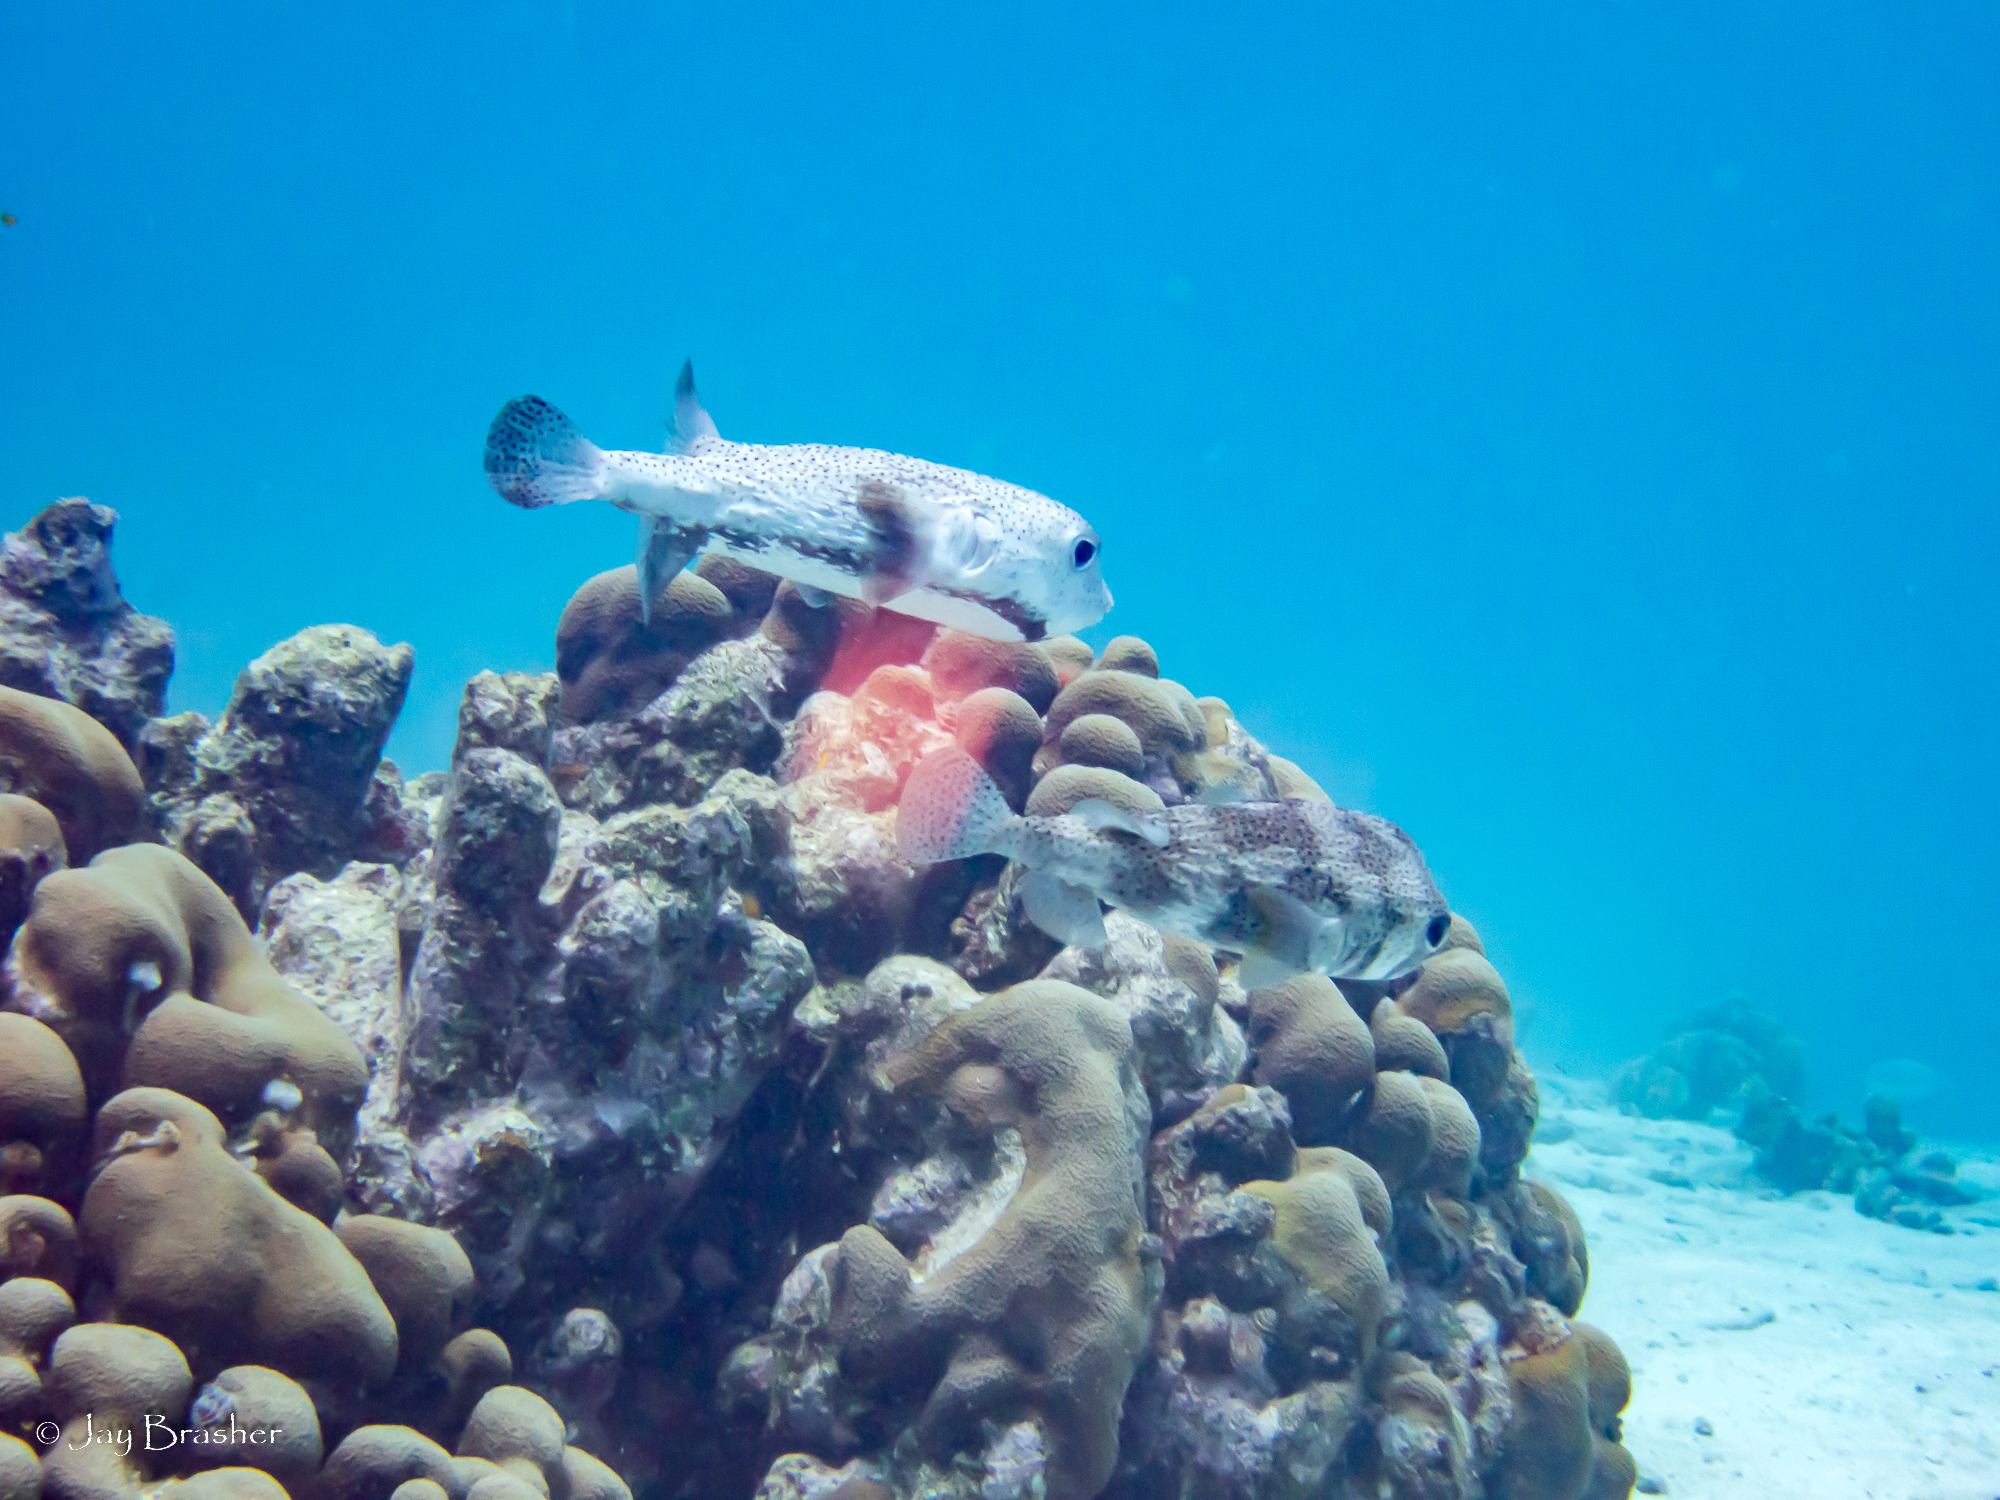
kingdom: Animalia
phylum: Chordata
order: Tetraodontiformes
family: Diodontidae
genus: Diodon
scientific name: Diodon hystrix
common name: Giant porcupinefish
